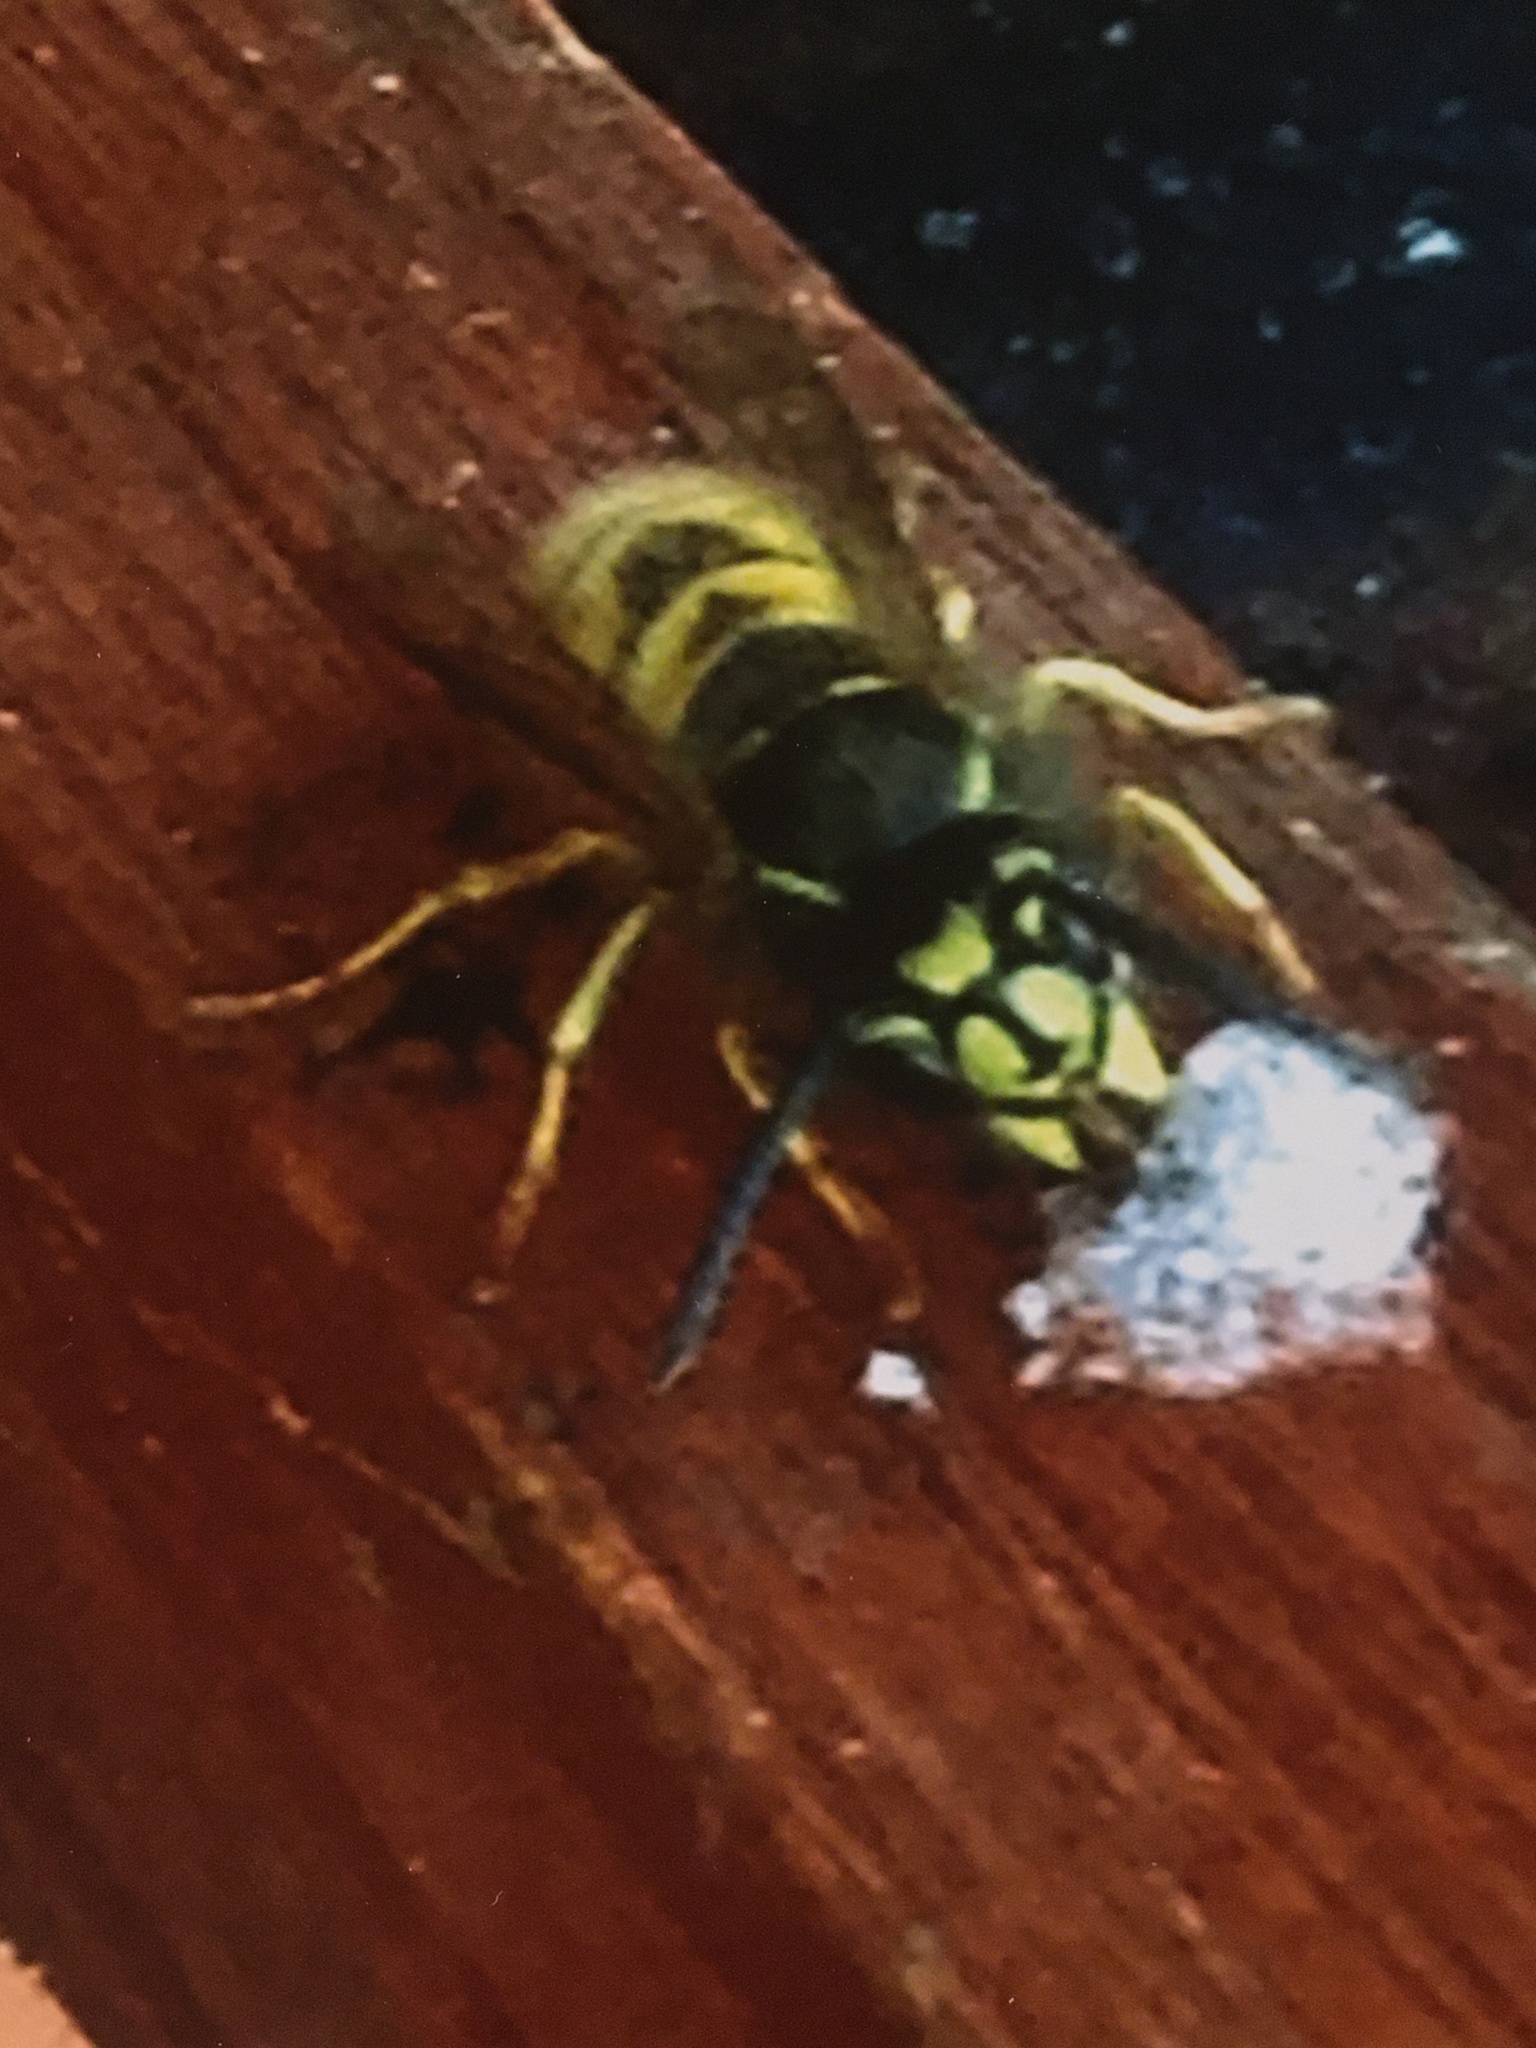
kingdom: Animalia
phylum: Arthropoda
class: Insecta
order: Hymenoptera
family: Vespidae
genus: Vespula
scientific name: Vespula vulgaris
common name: Common wasp
